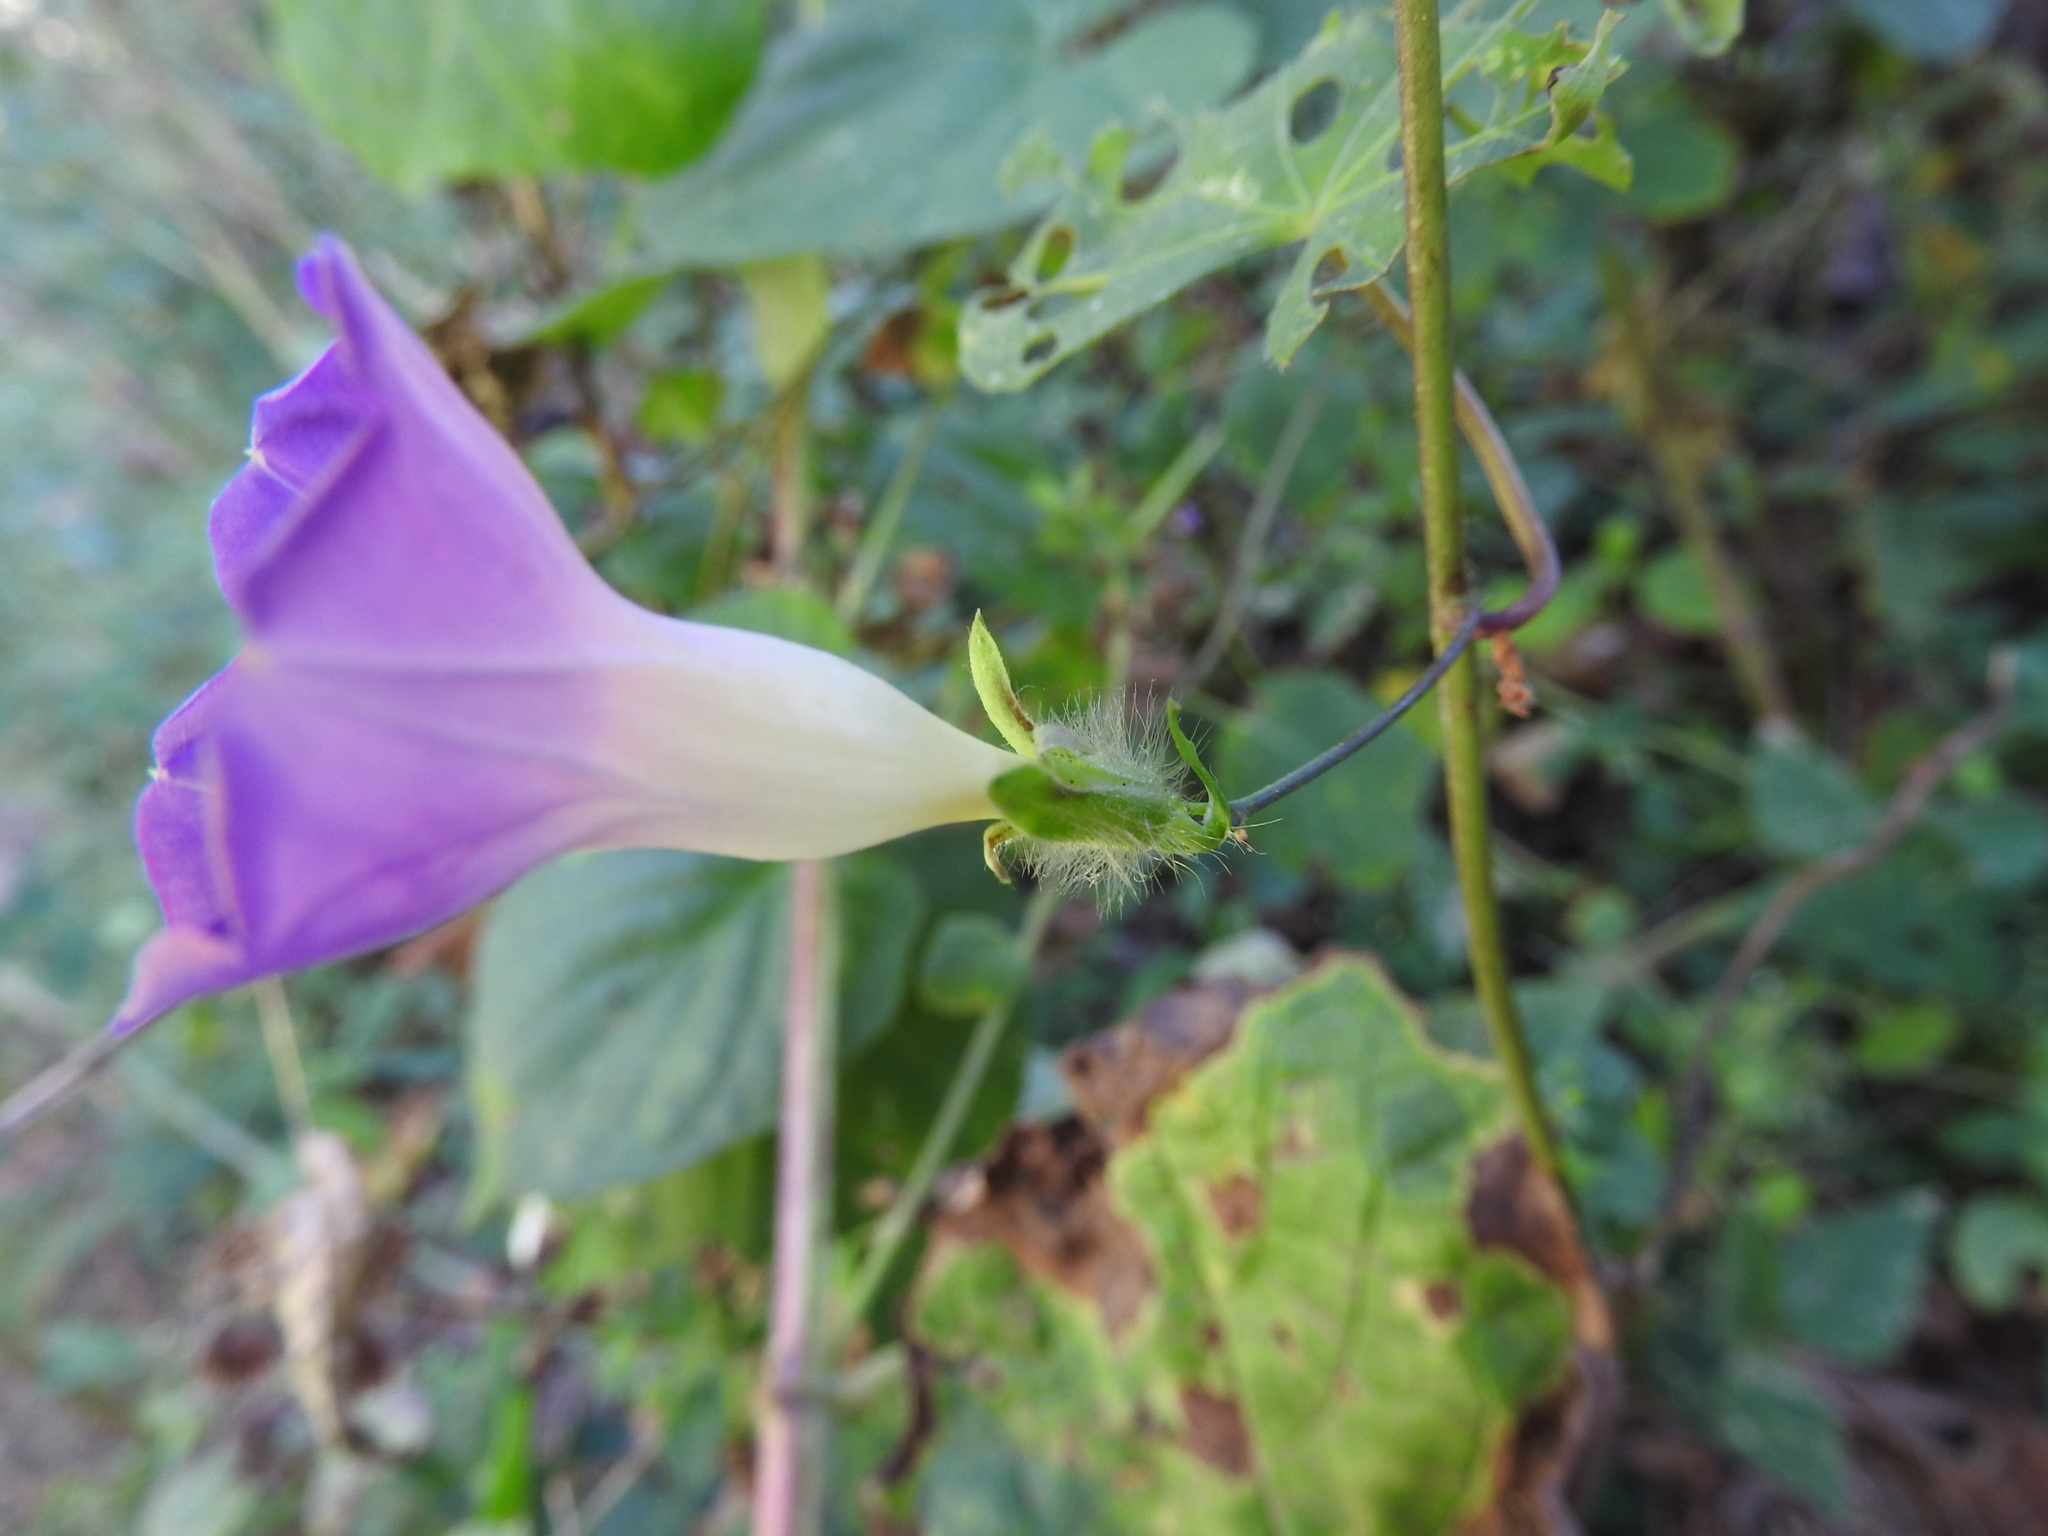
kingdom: Plantae
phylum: Tracheophyta
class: Magnoliopsida
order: Solanales
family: Convolvulaceae
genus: Ipomoea
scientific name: Ipomoea meyeri
